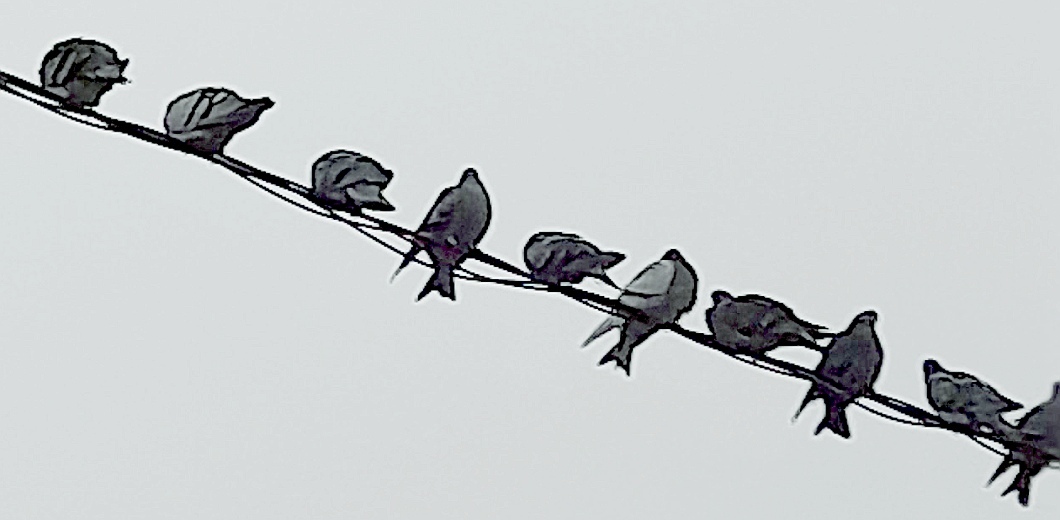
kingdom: Animalia
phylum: Chordata
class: Aves
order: Columbiformes
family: Columbidae
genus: Columba
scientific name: Columba livia
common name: Rock pigeon
